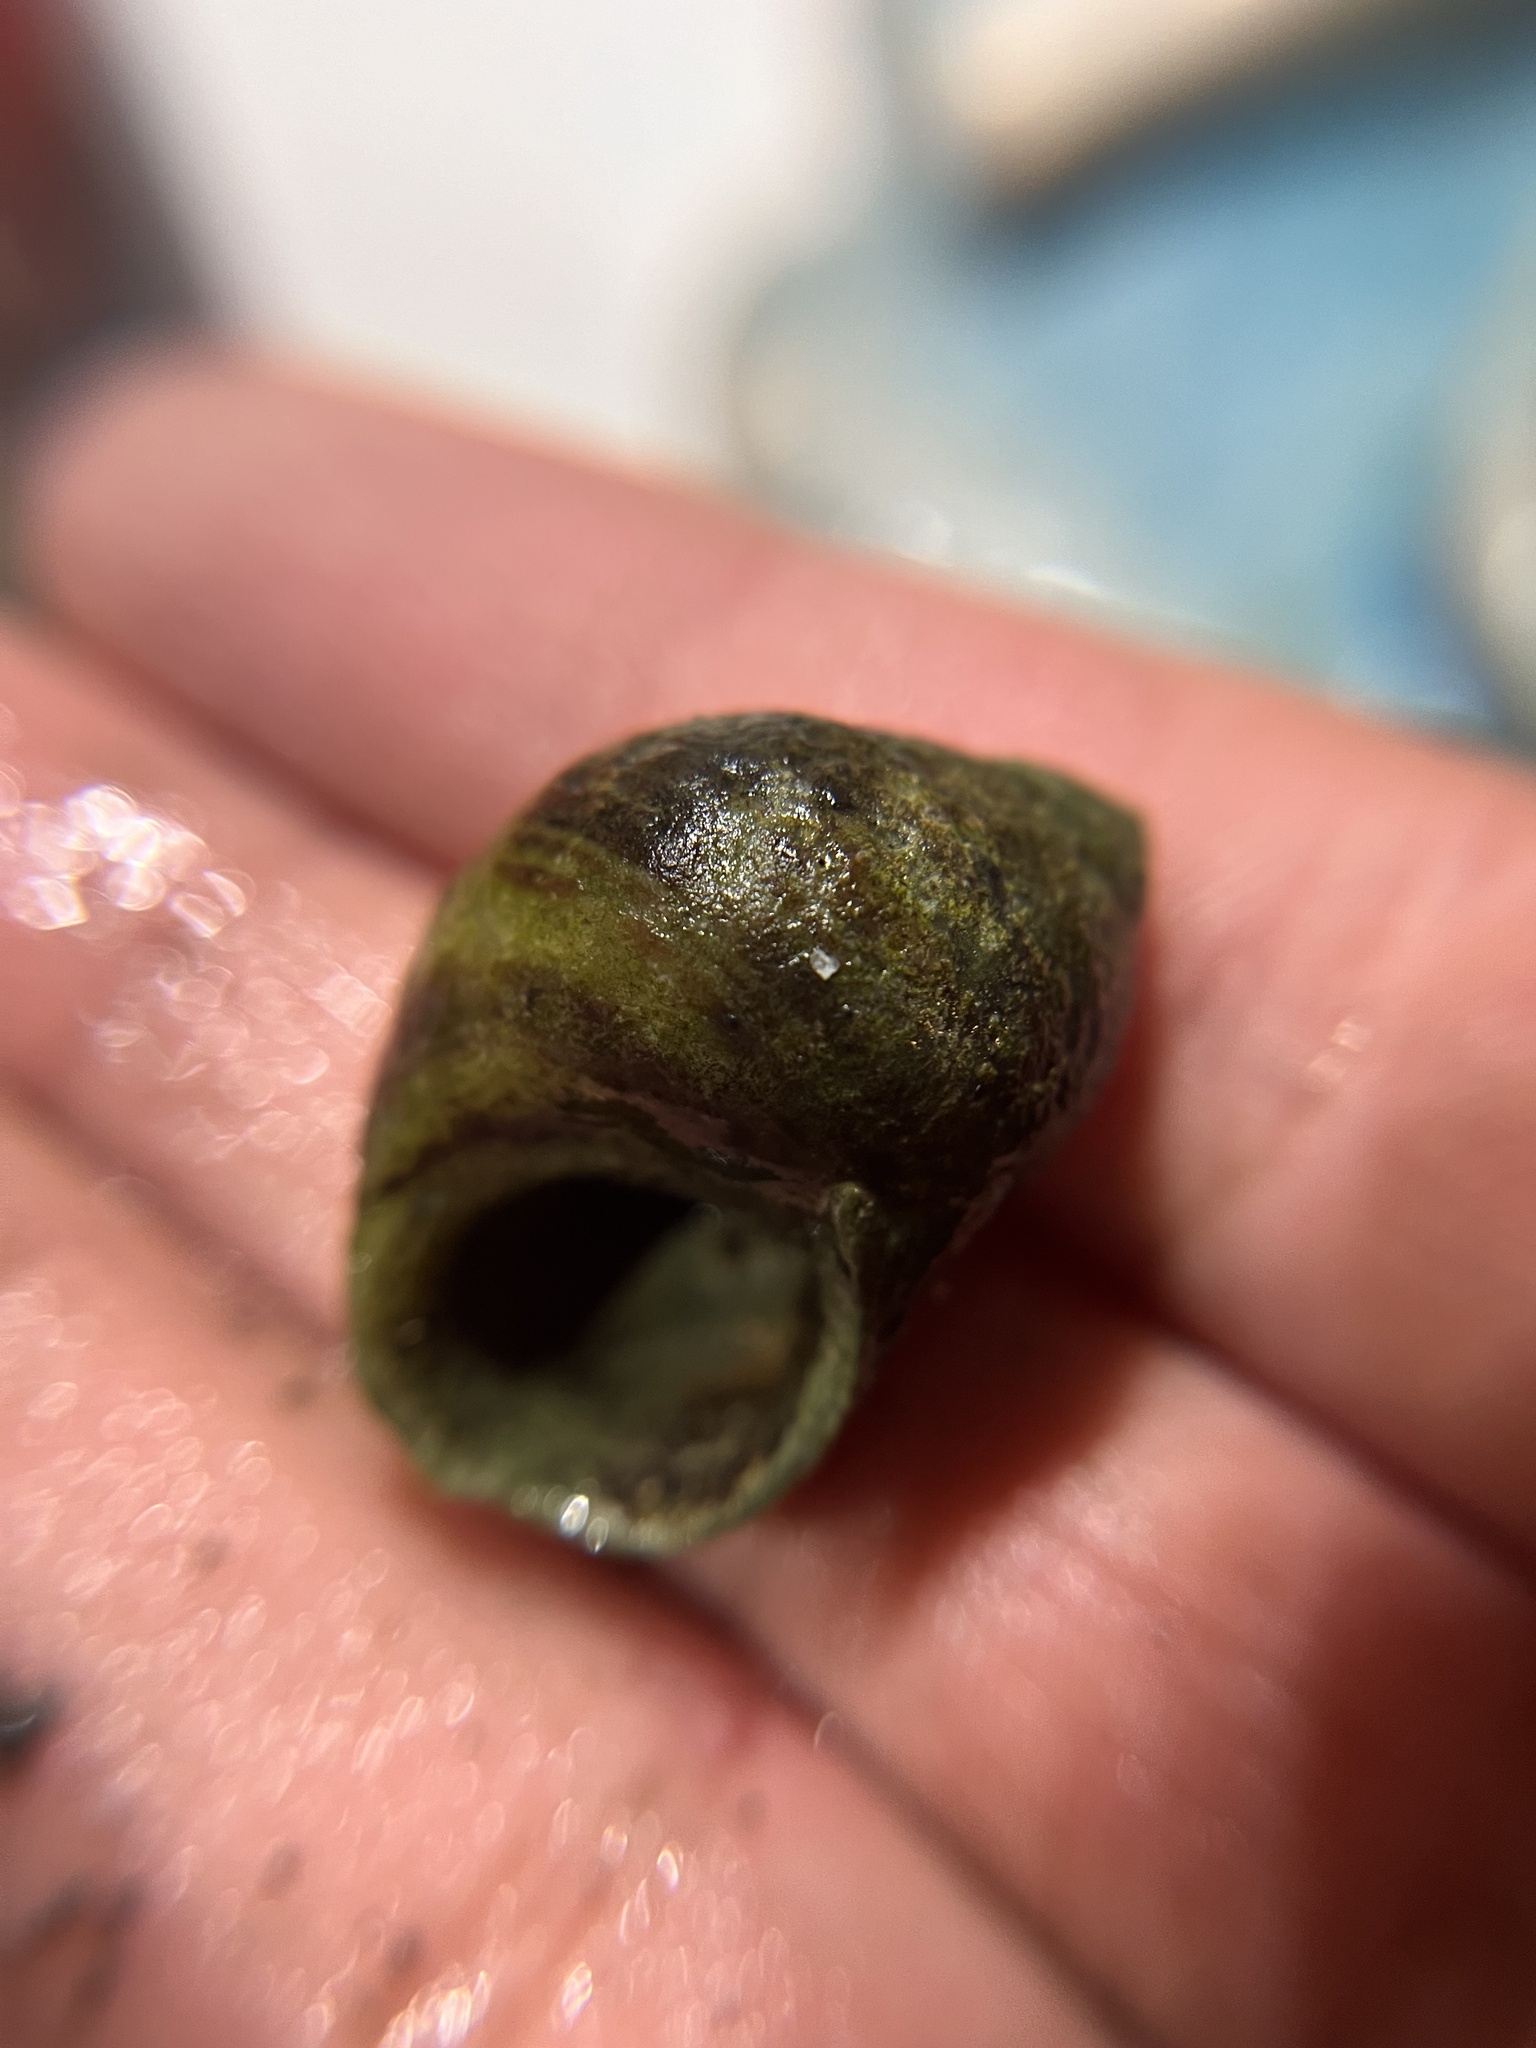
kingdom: Animalia
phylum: Mollusca
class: Gastropoda
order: Littorinimorpha
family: Littorinidae
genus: Littorina
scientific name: Littorina littorea
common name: Common periwinkle
